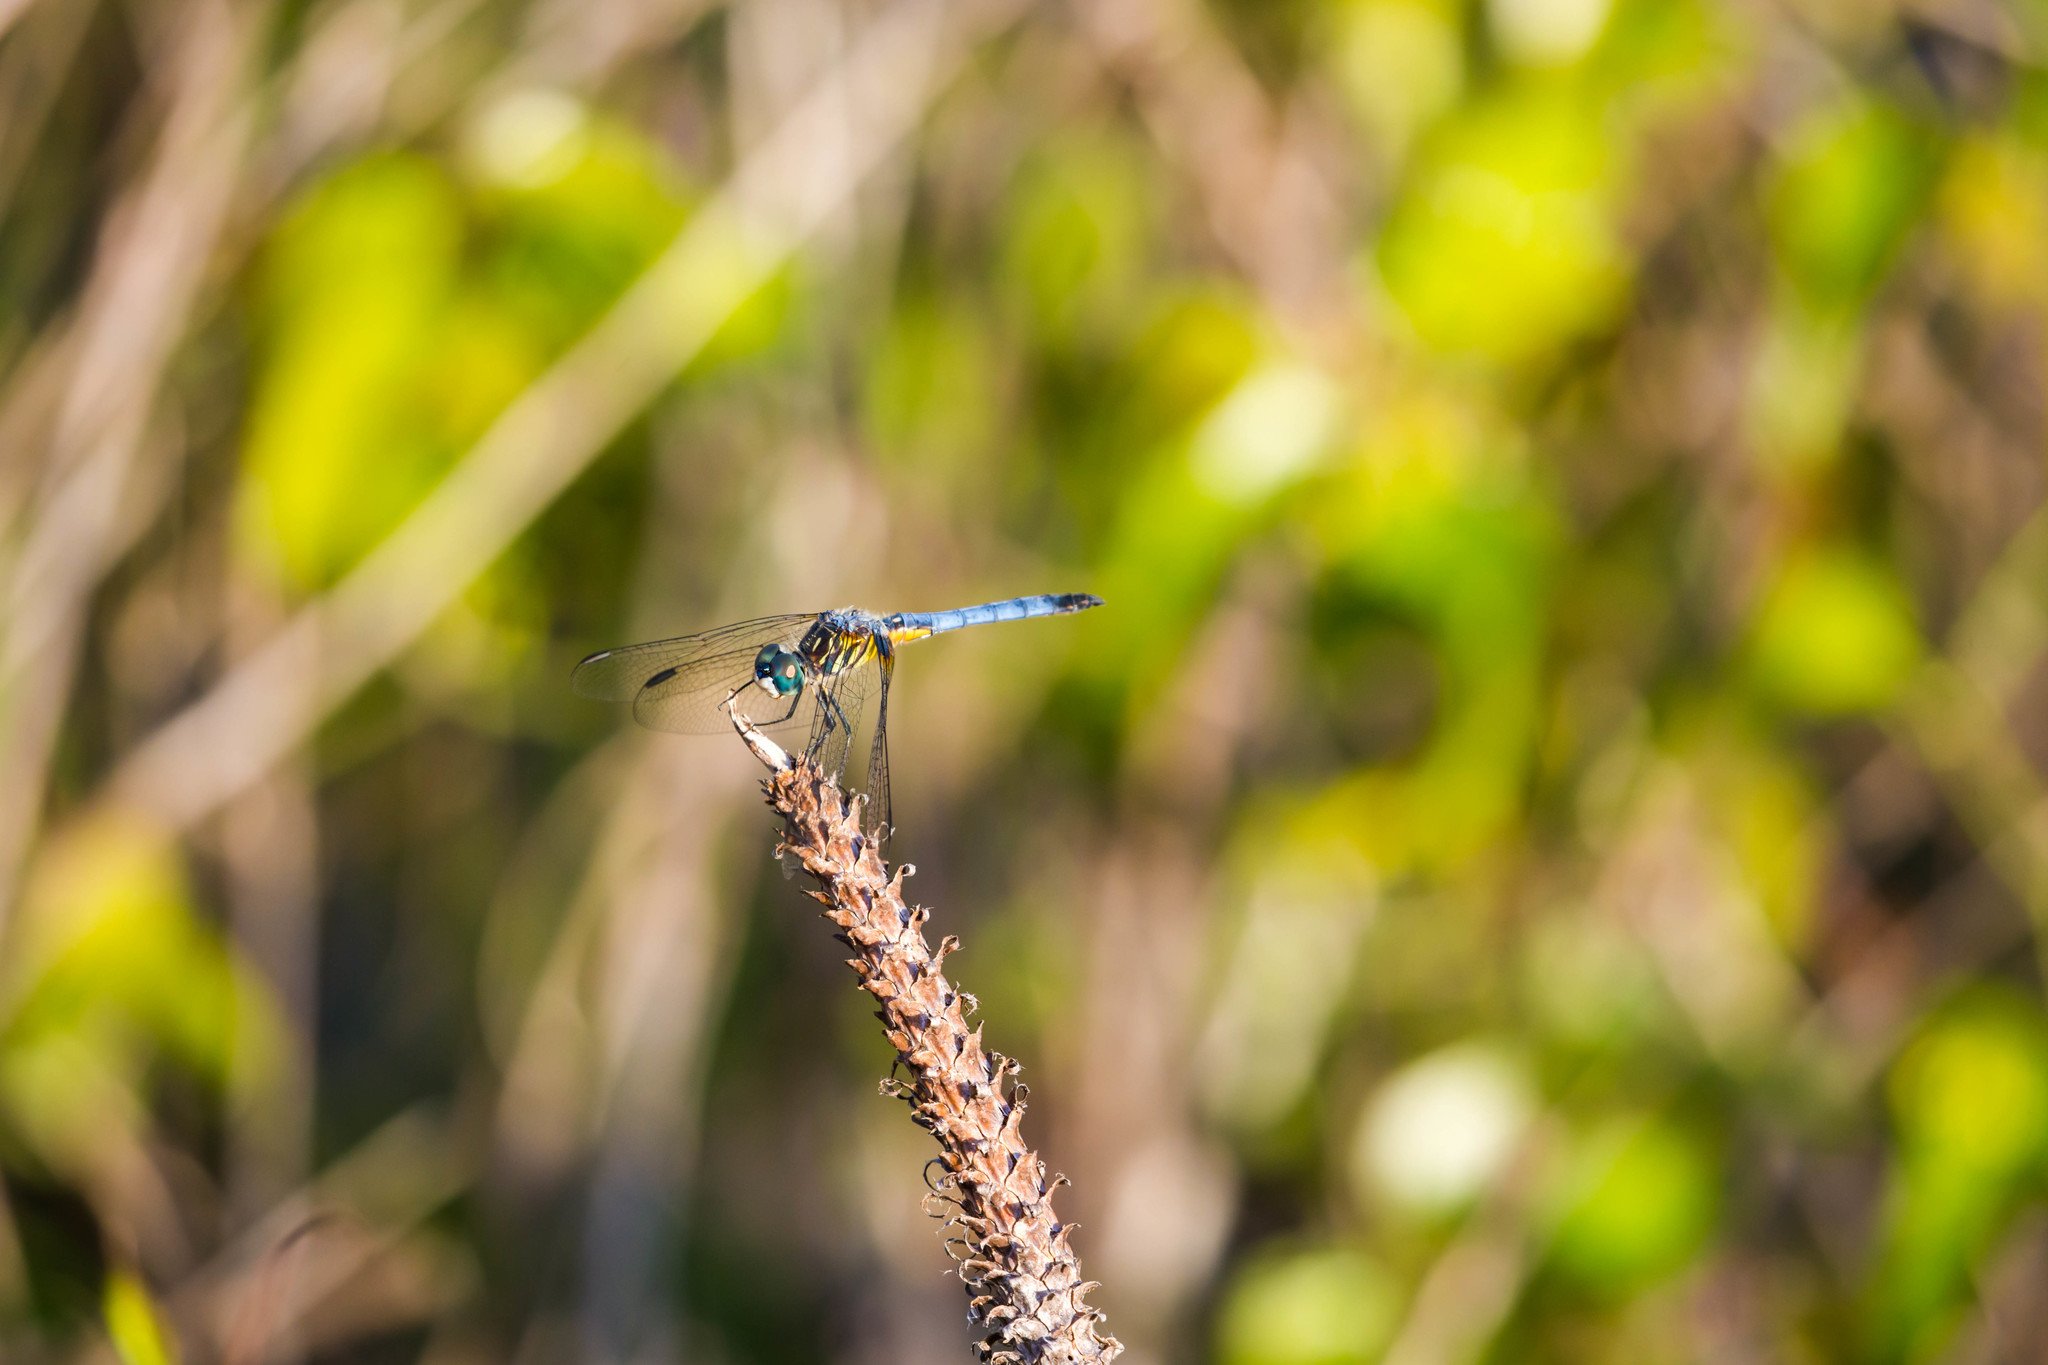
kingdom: Animalia
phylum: Arthropoda
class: Insecta
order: Odonata
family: Libellulidae
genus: Pachydiplax
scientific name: Pachydiplax longipennis
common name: Blue dasher
